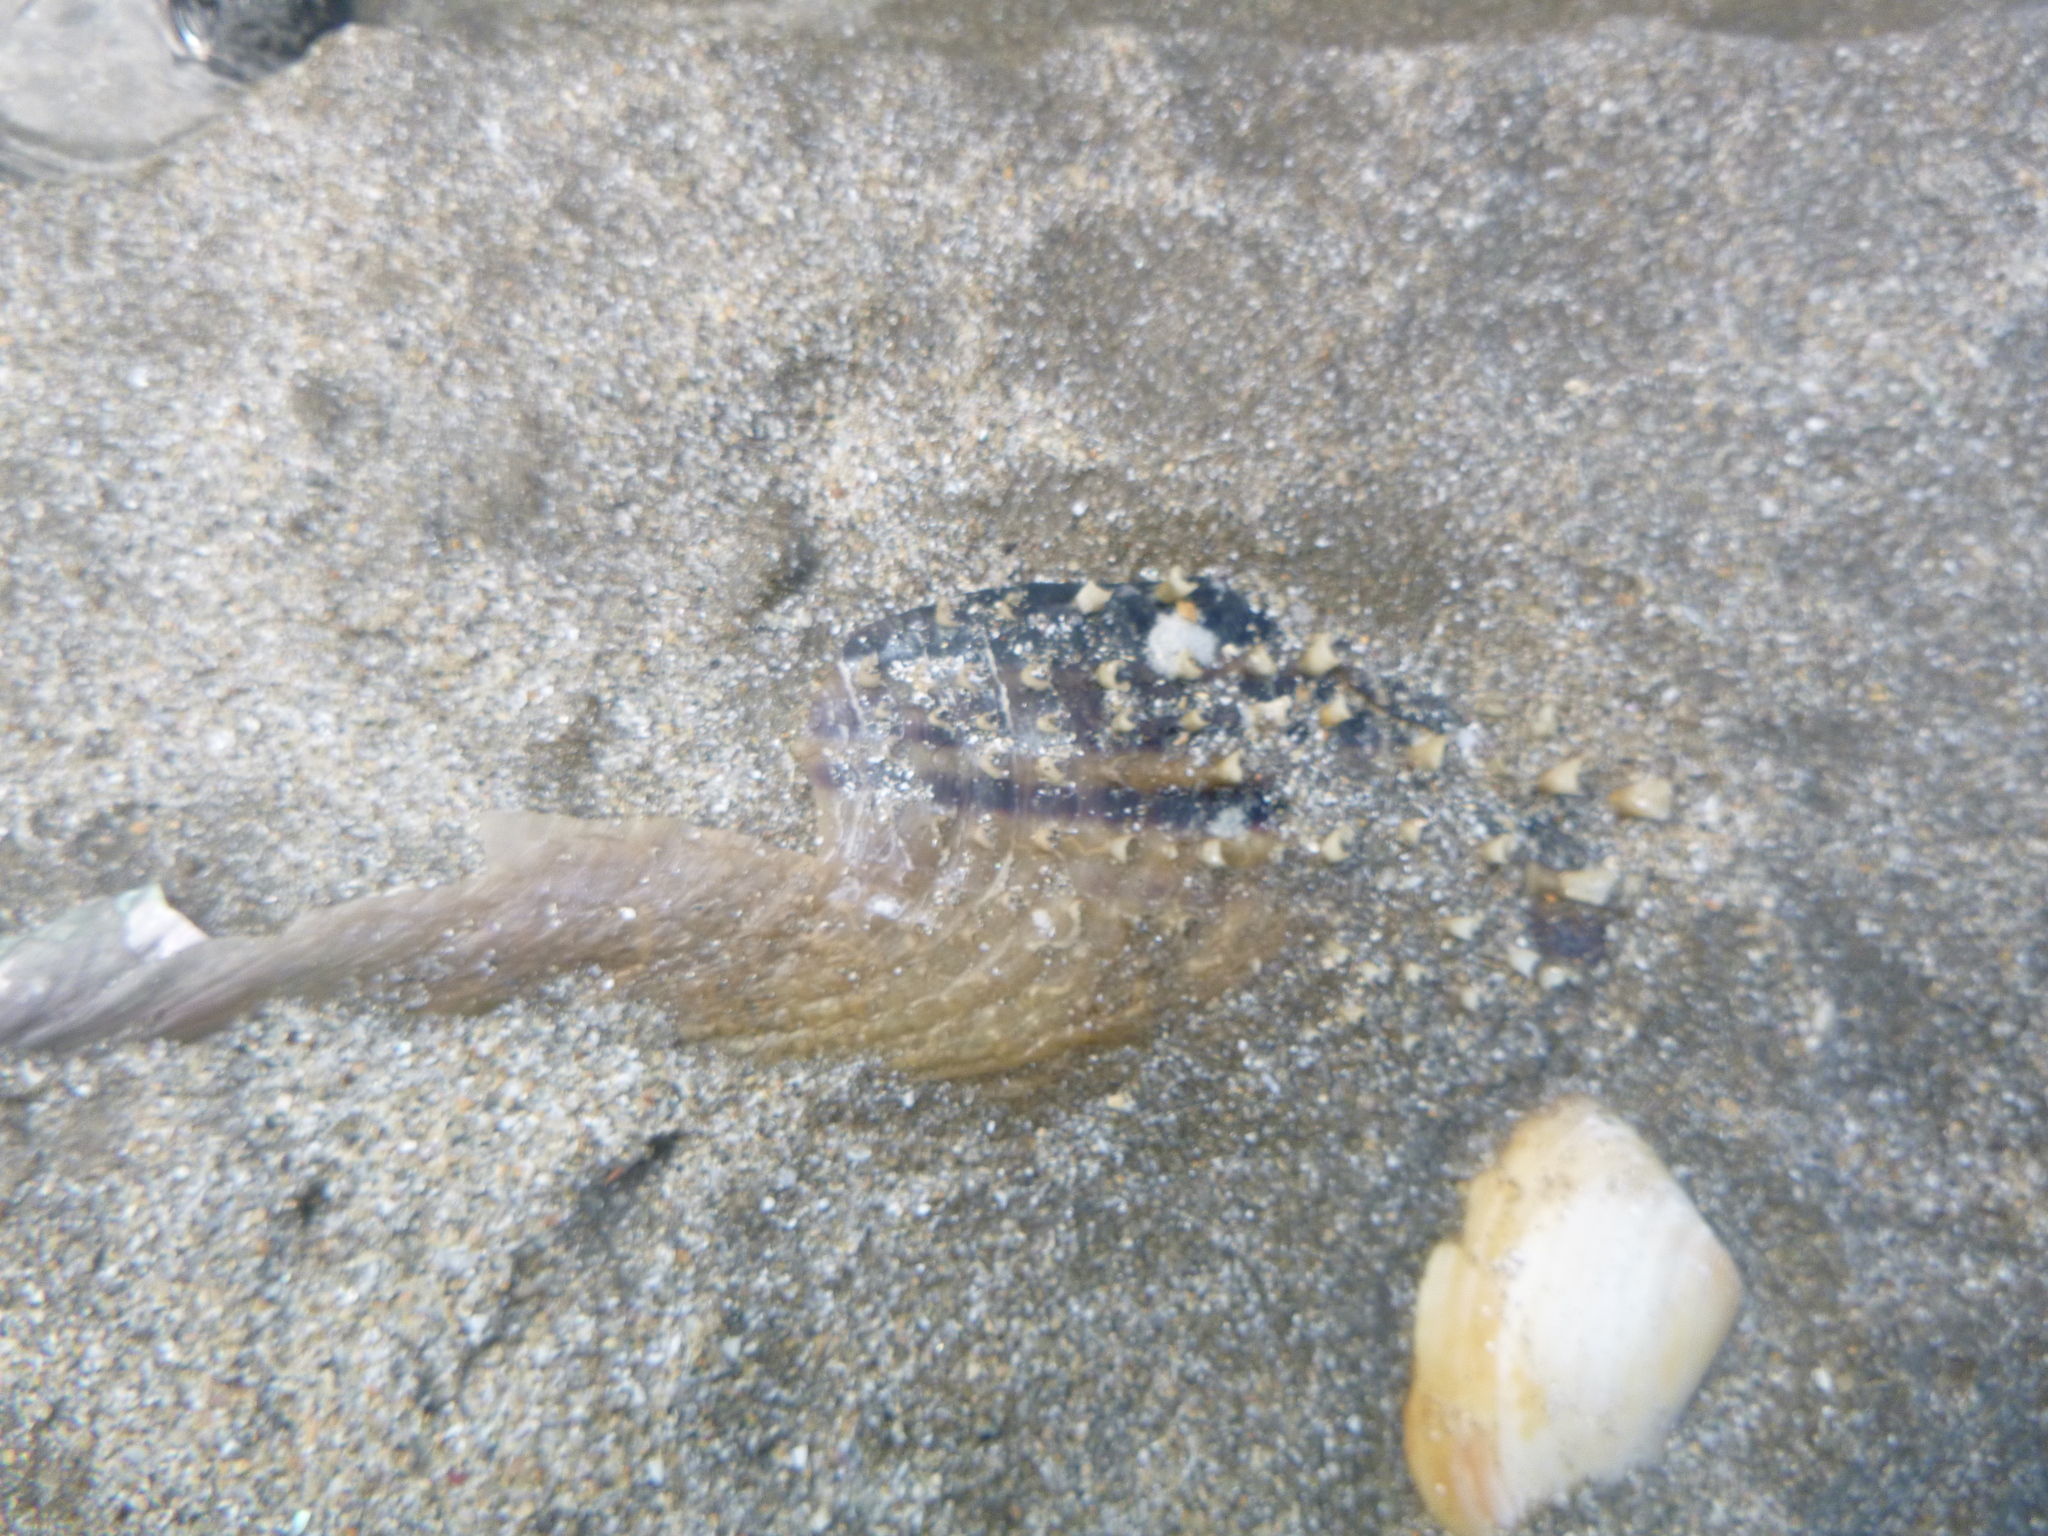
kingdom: Animalia
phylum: Mollusca
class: Bivalvia
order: Ostreida
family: Pinnidae
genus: Atrina
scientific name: Atrina zelandica
